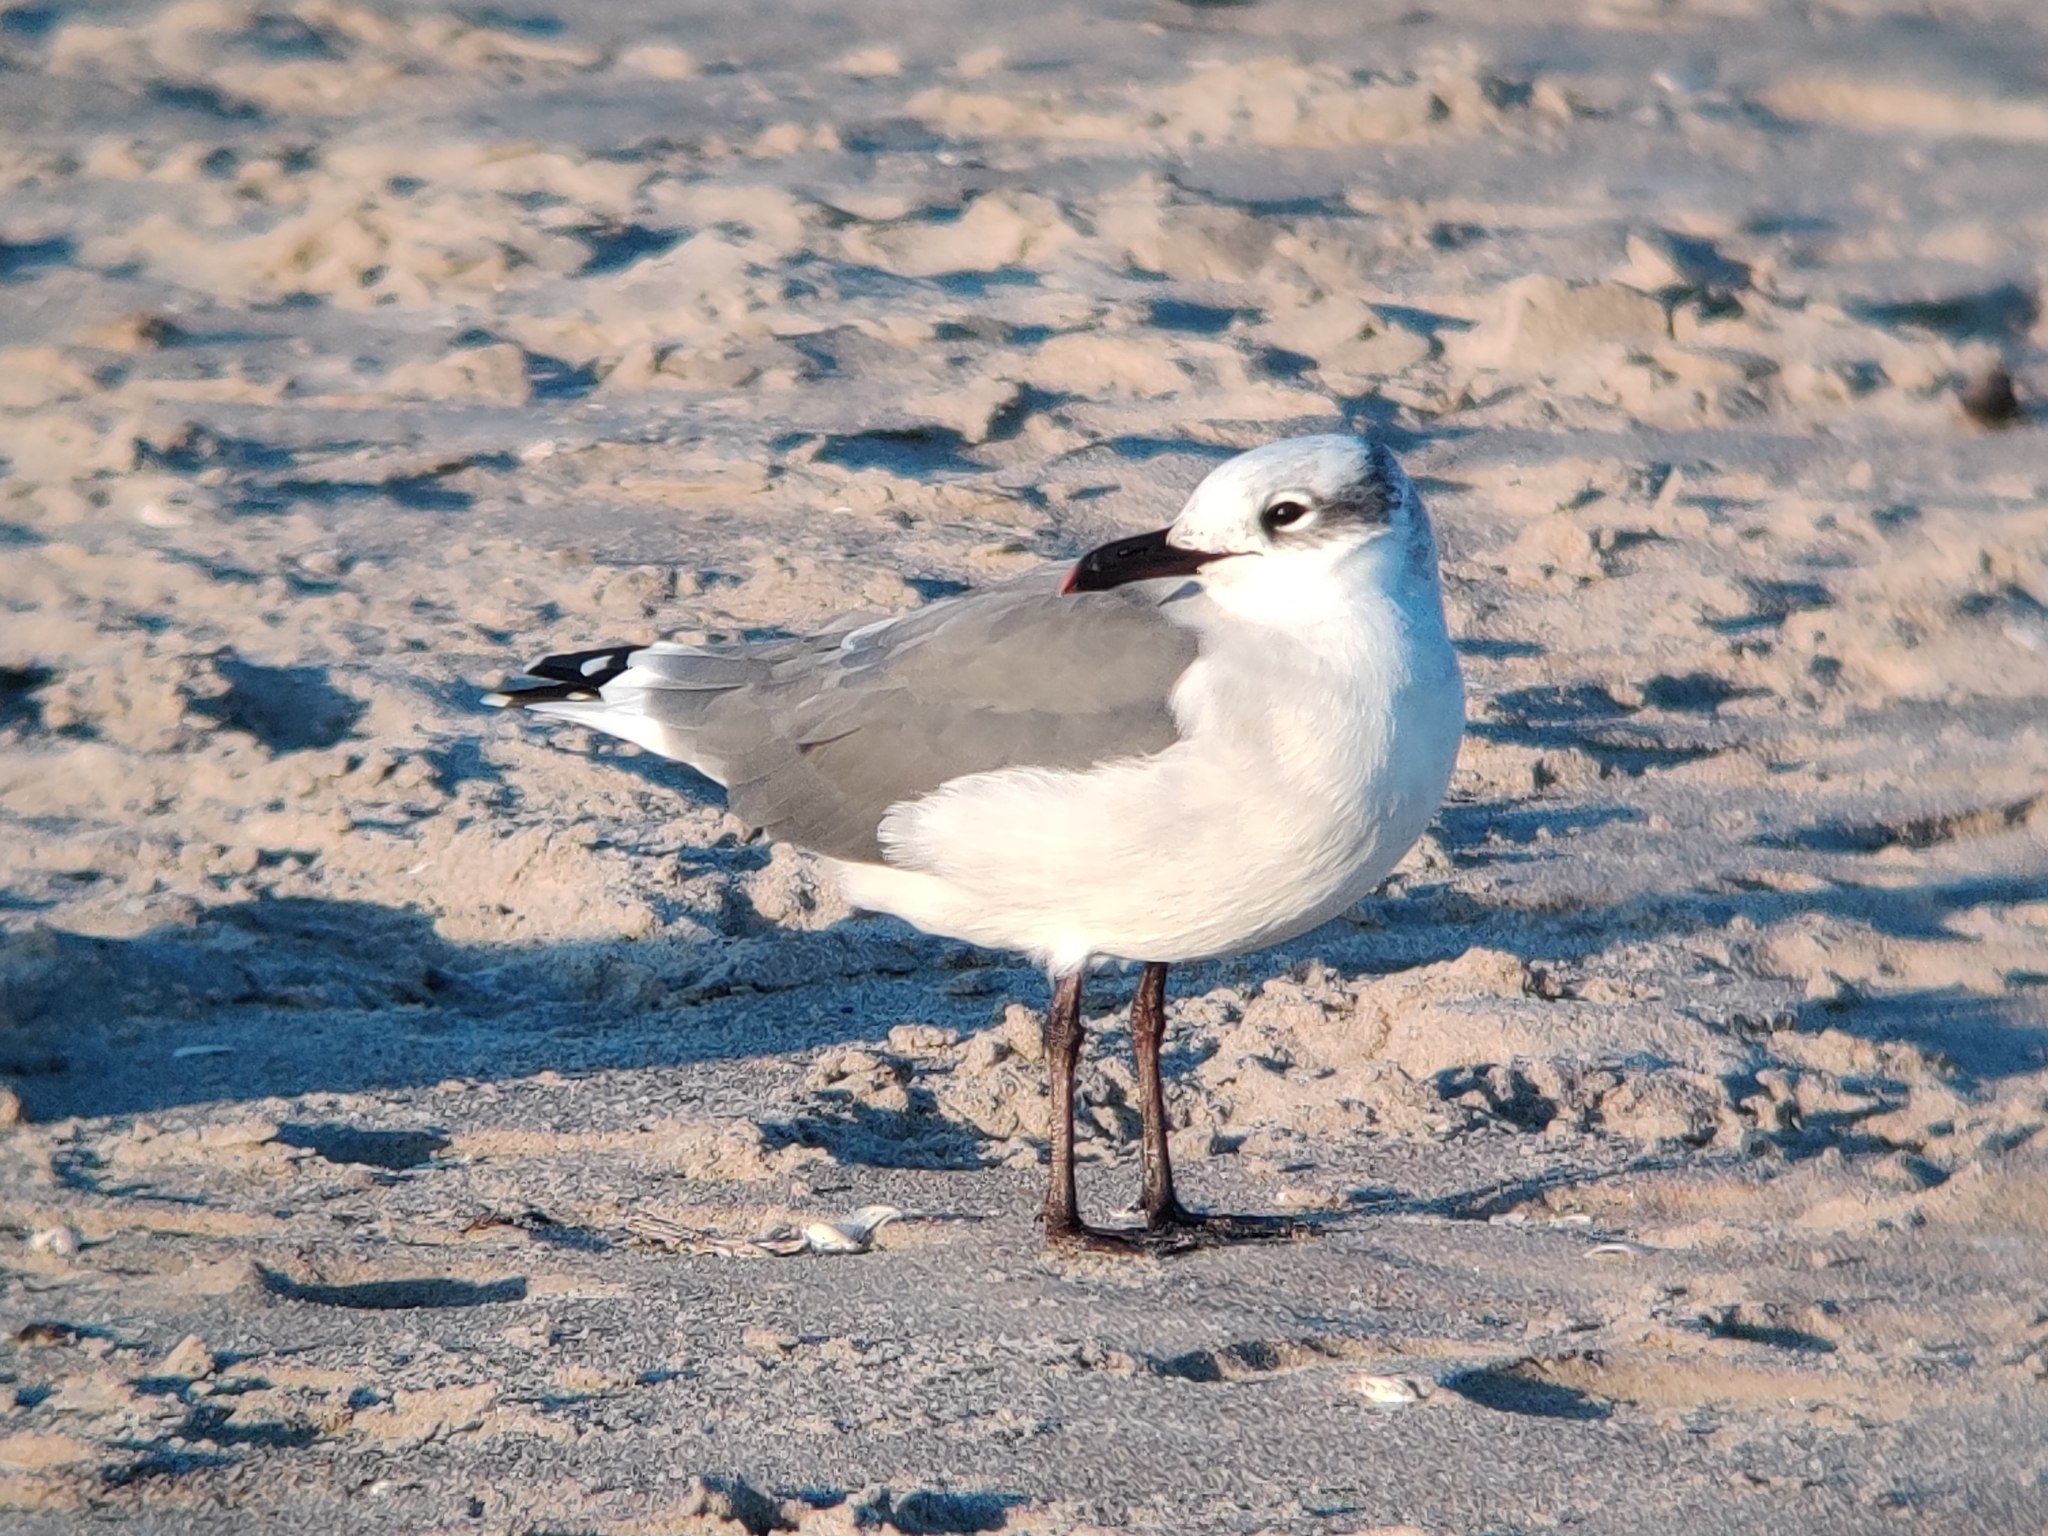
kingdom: Animalia
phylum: Chordata
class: Aves
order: Charadriiformes
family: Laridae
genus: Leucophaeus
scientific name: Leucophaeus atricilla
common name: Laughing gull
